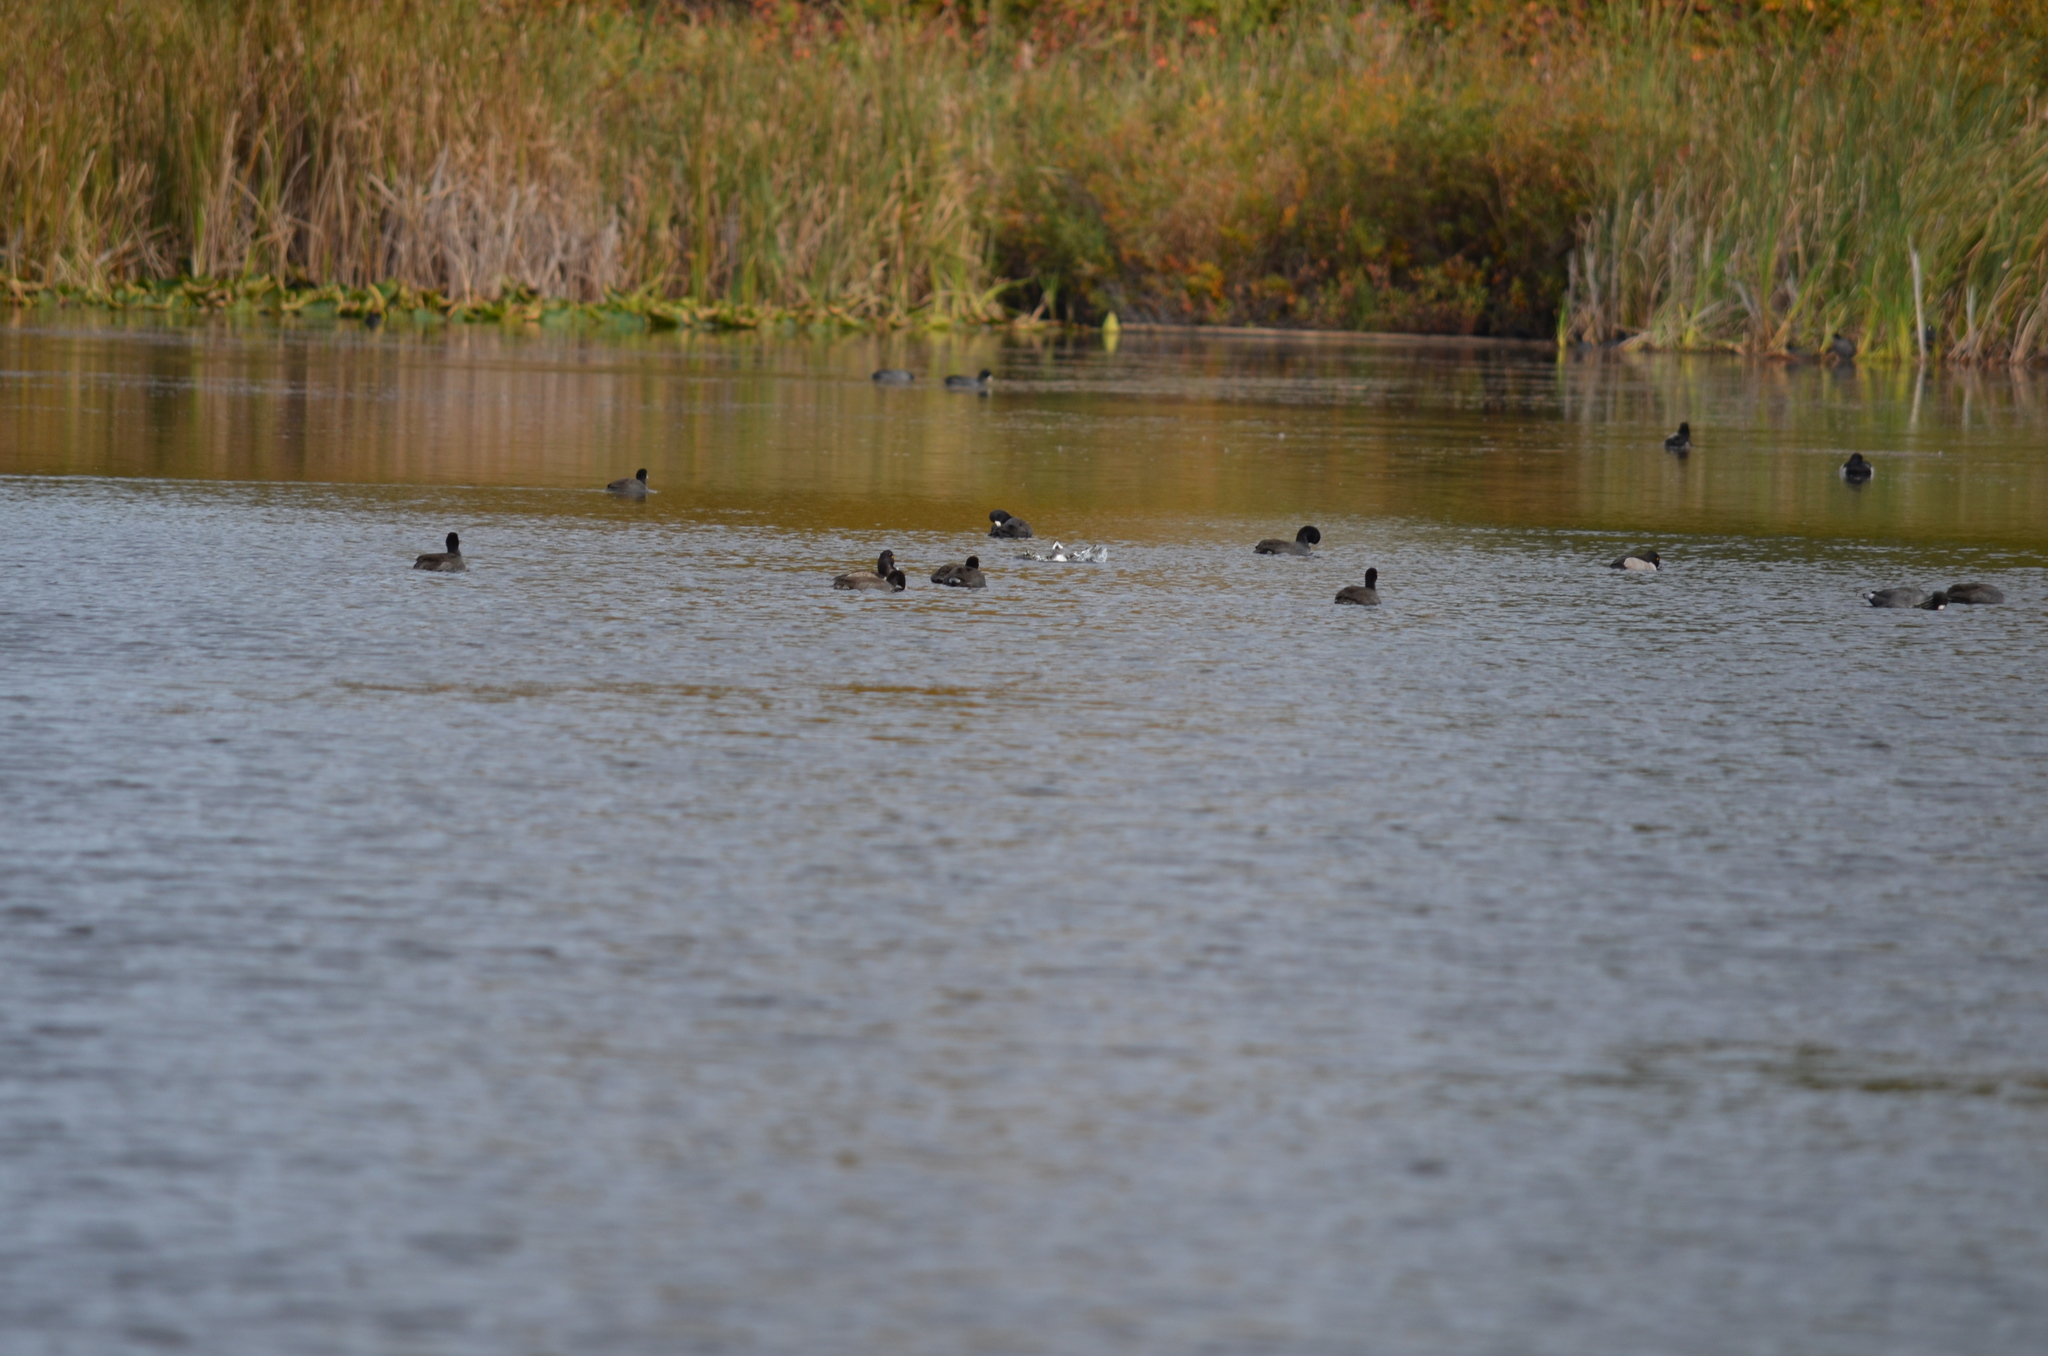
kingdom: Animalia
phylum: Chordata
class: Aves
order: Gruiformes
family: Rallidae
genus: Fulica
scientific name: Fulica americana
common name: American coot
